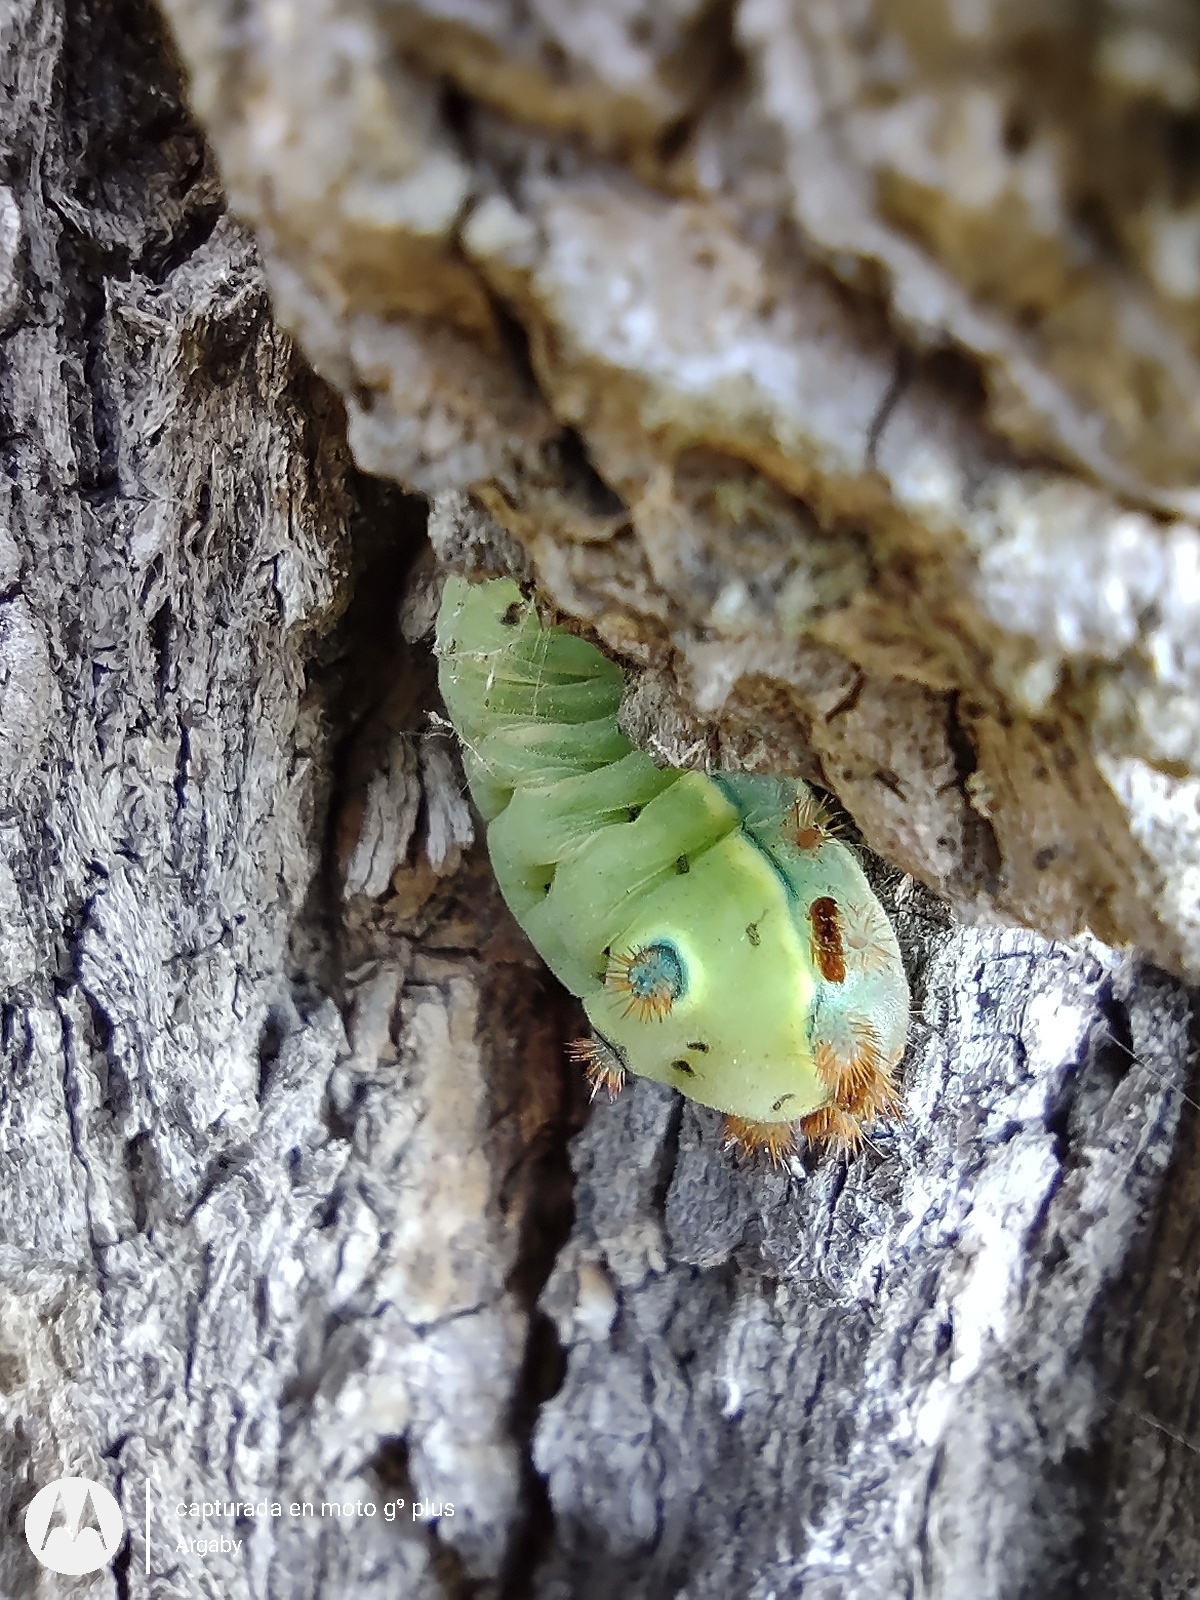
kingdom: Animalia
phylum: Arthropoda
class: Insecta
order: Lepidoptera
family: Limacodidae
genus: Acharia
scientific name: Acharia
